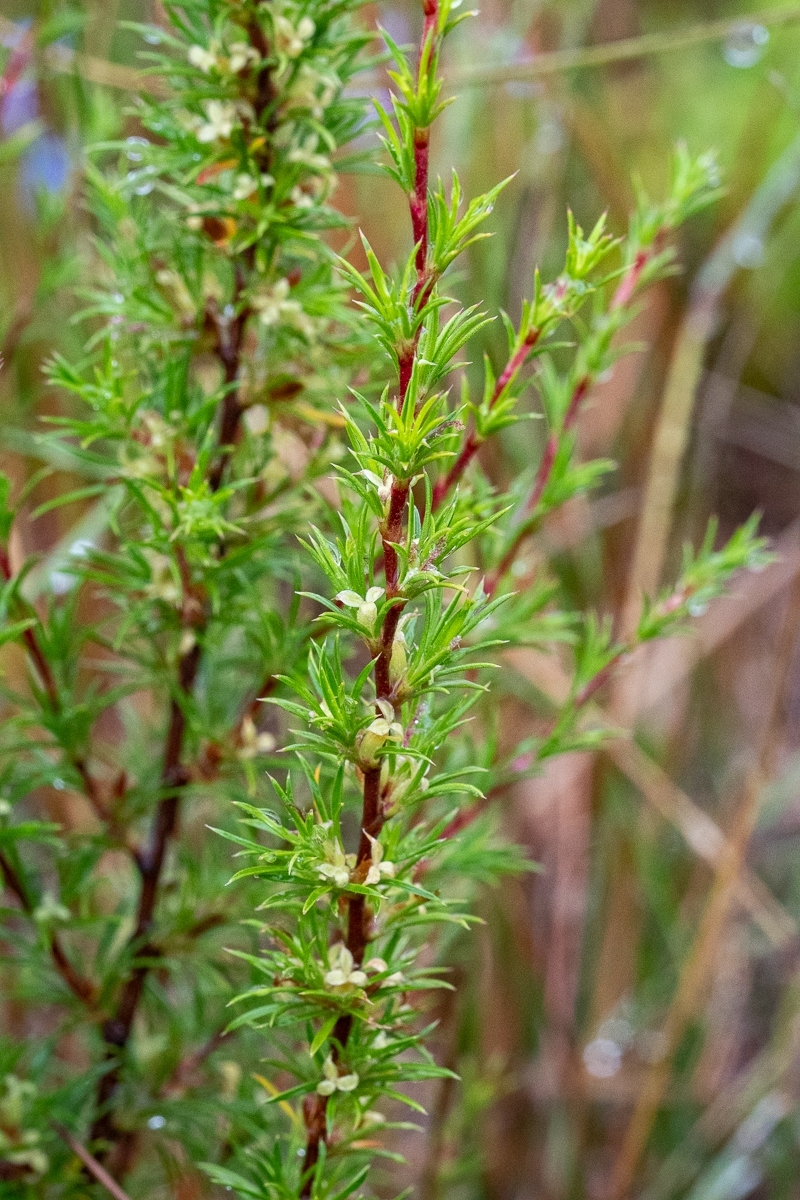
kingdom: Plantae
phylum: Tracheophyta
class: Magnoliopsida
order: Rosales
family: Rosaceae
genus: Cliffortia
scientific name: Cliffortia atrata
